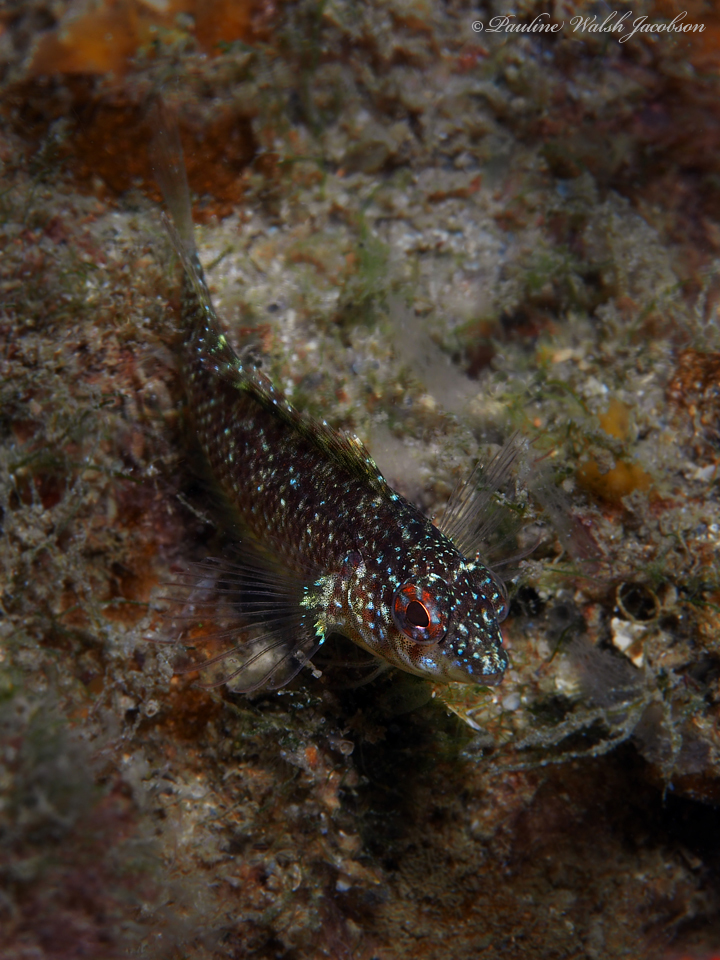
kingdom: Animalia
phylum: Chordata
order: Perciformes
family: Labrisomidae
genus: Malacoctenus
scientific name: Malacoctenus macropus
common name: Rosy blenny
